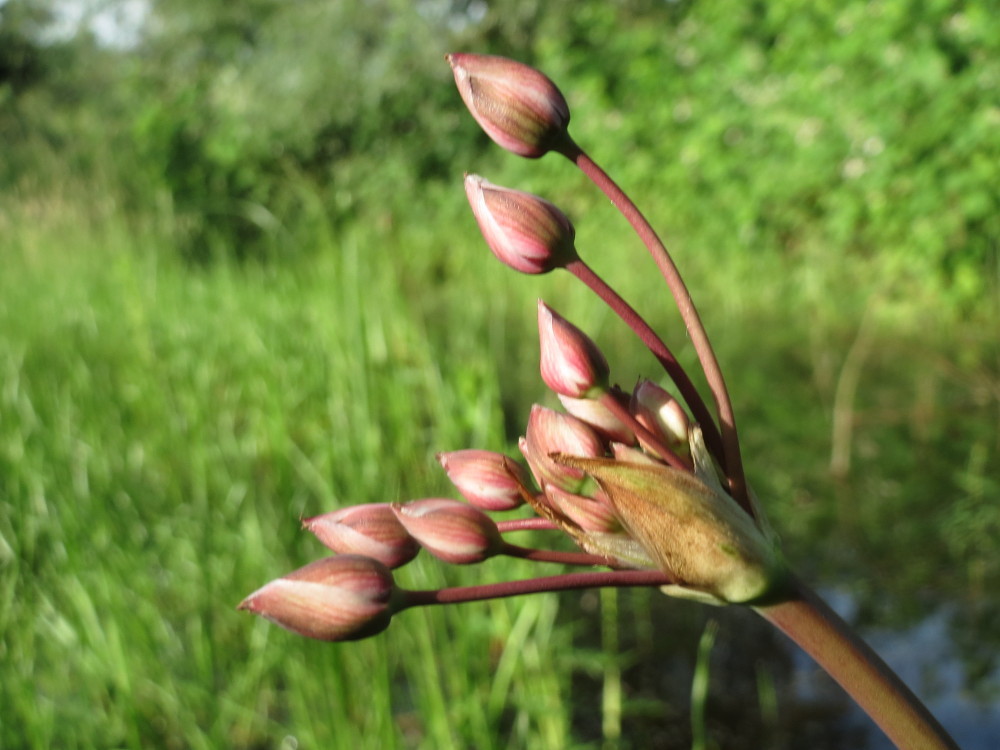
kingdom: Plantae
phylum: Tracheophyta
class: Liliopsida
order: Alismatales
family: Butomaceae
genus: Butomus
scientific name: Butomus umbellatus
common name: Flowering-rush
